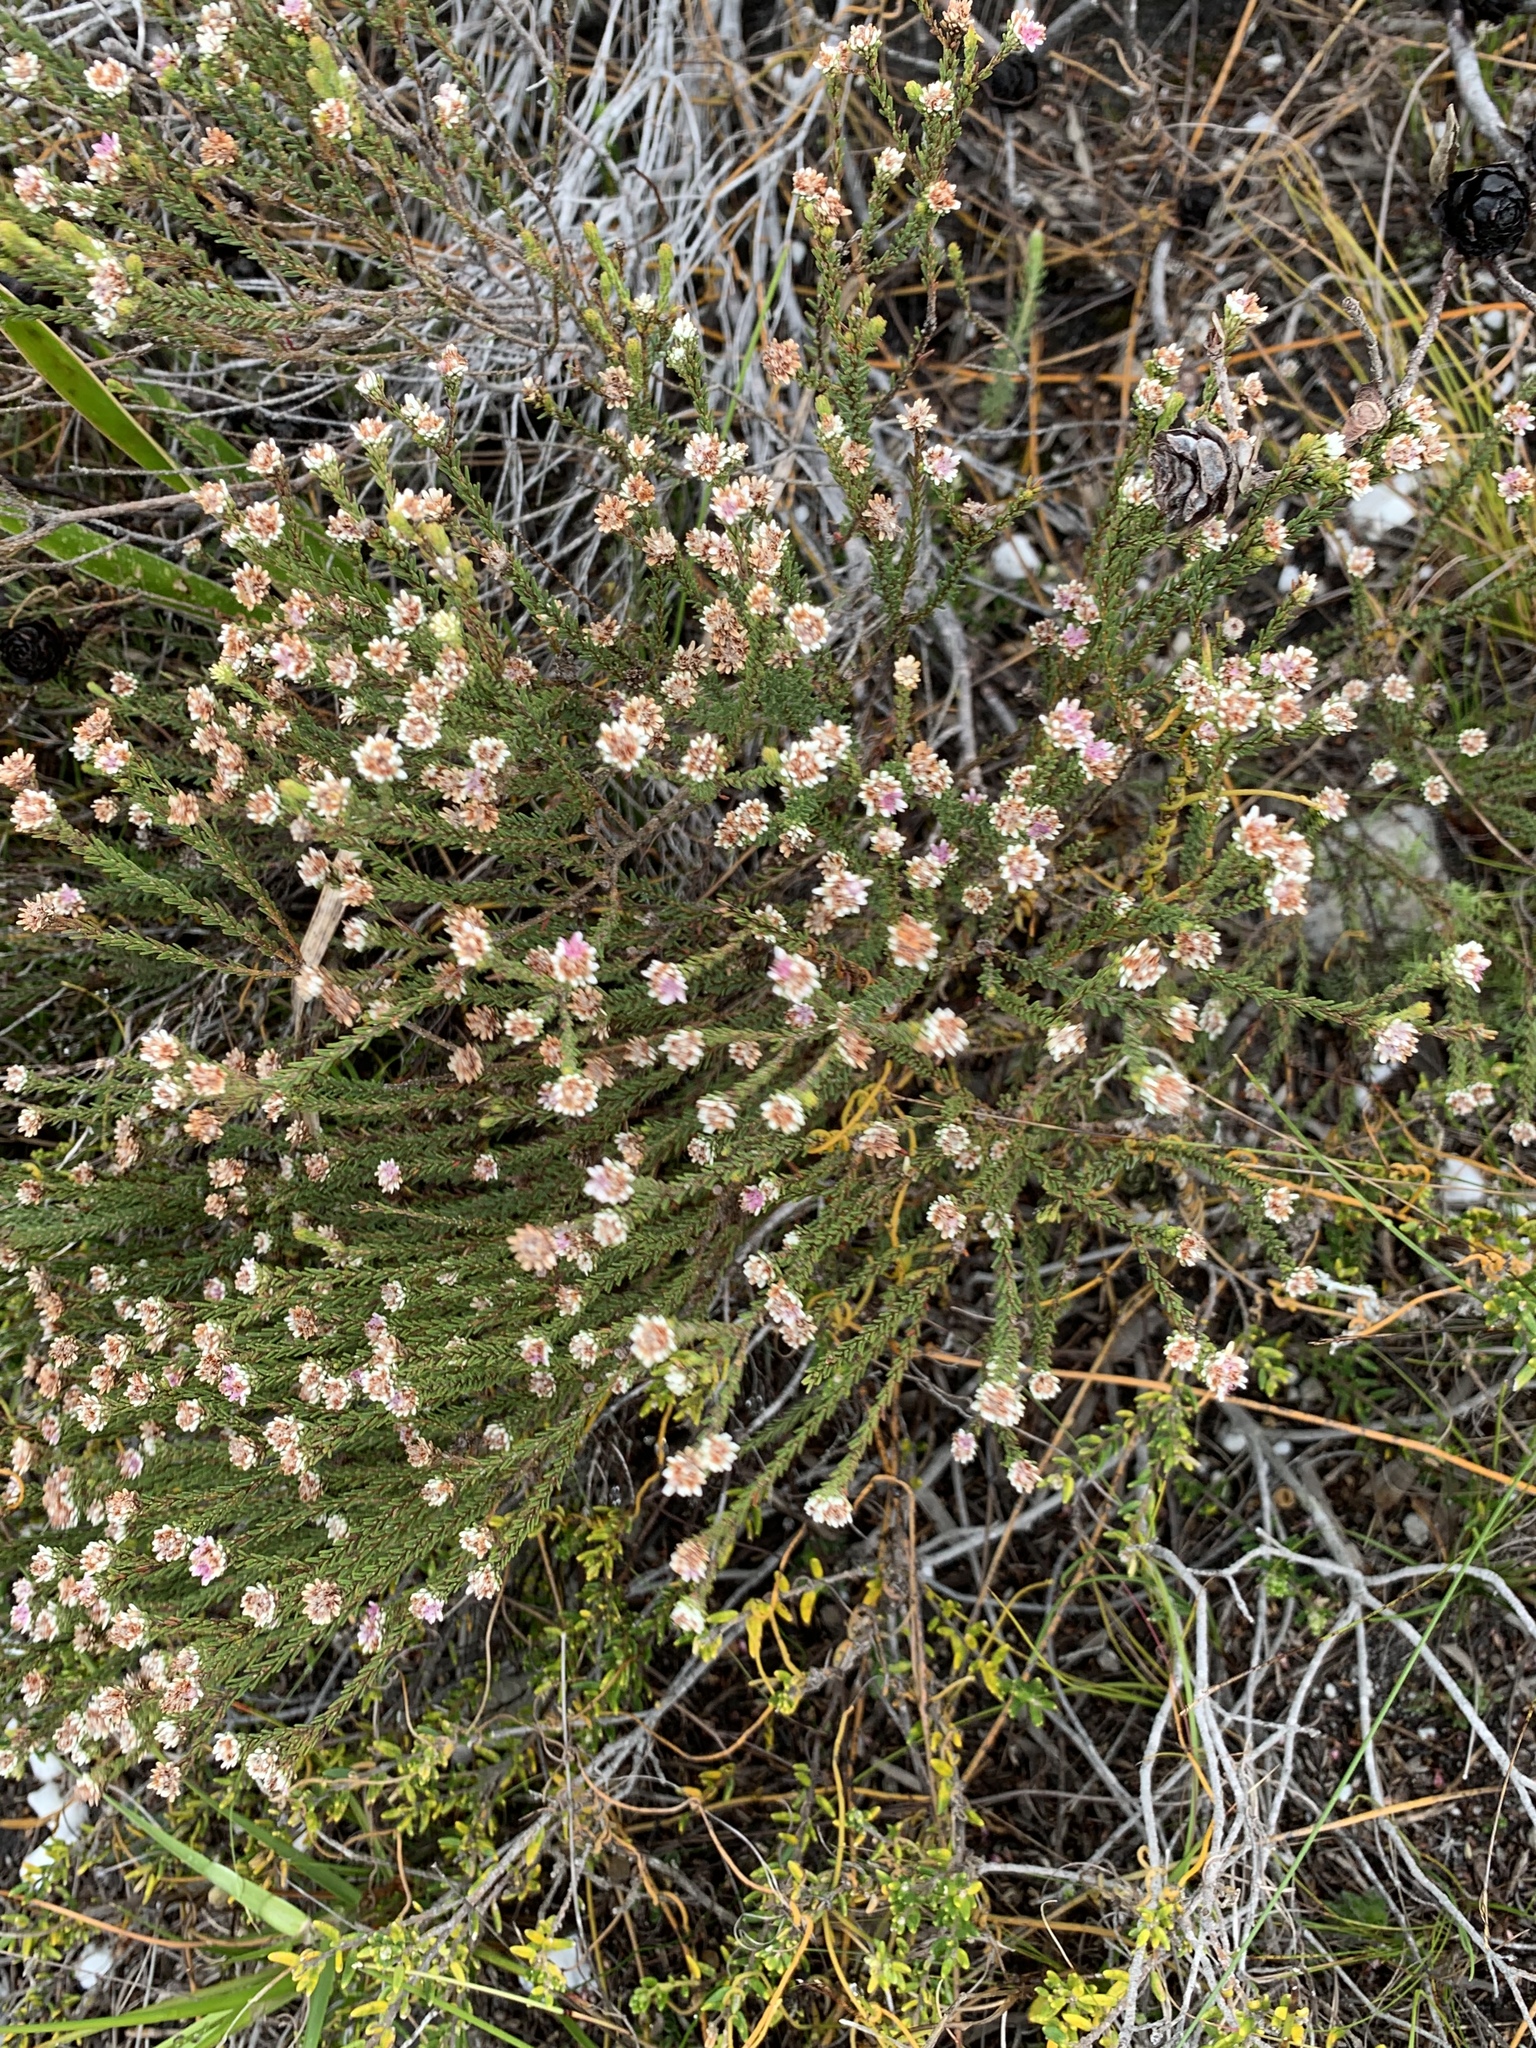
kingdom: Plantae
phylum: Tracheophyta
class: Magnoliopsida
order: Bruniales
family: Bruniaceae
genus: Staavia
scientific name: Staavia radiata
